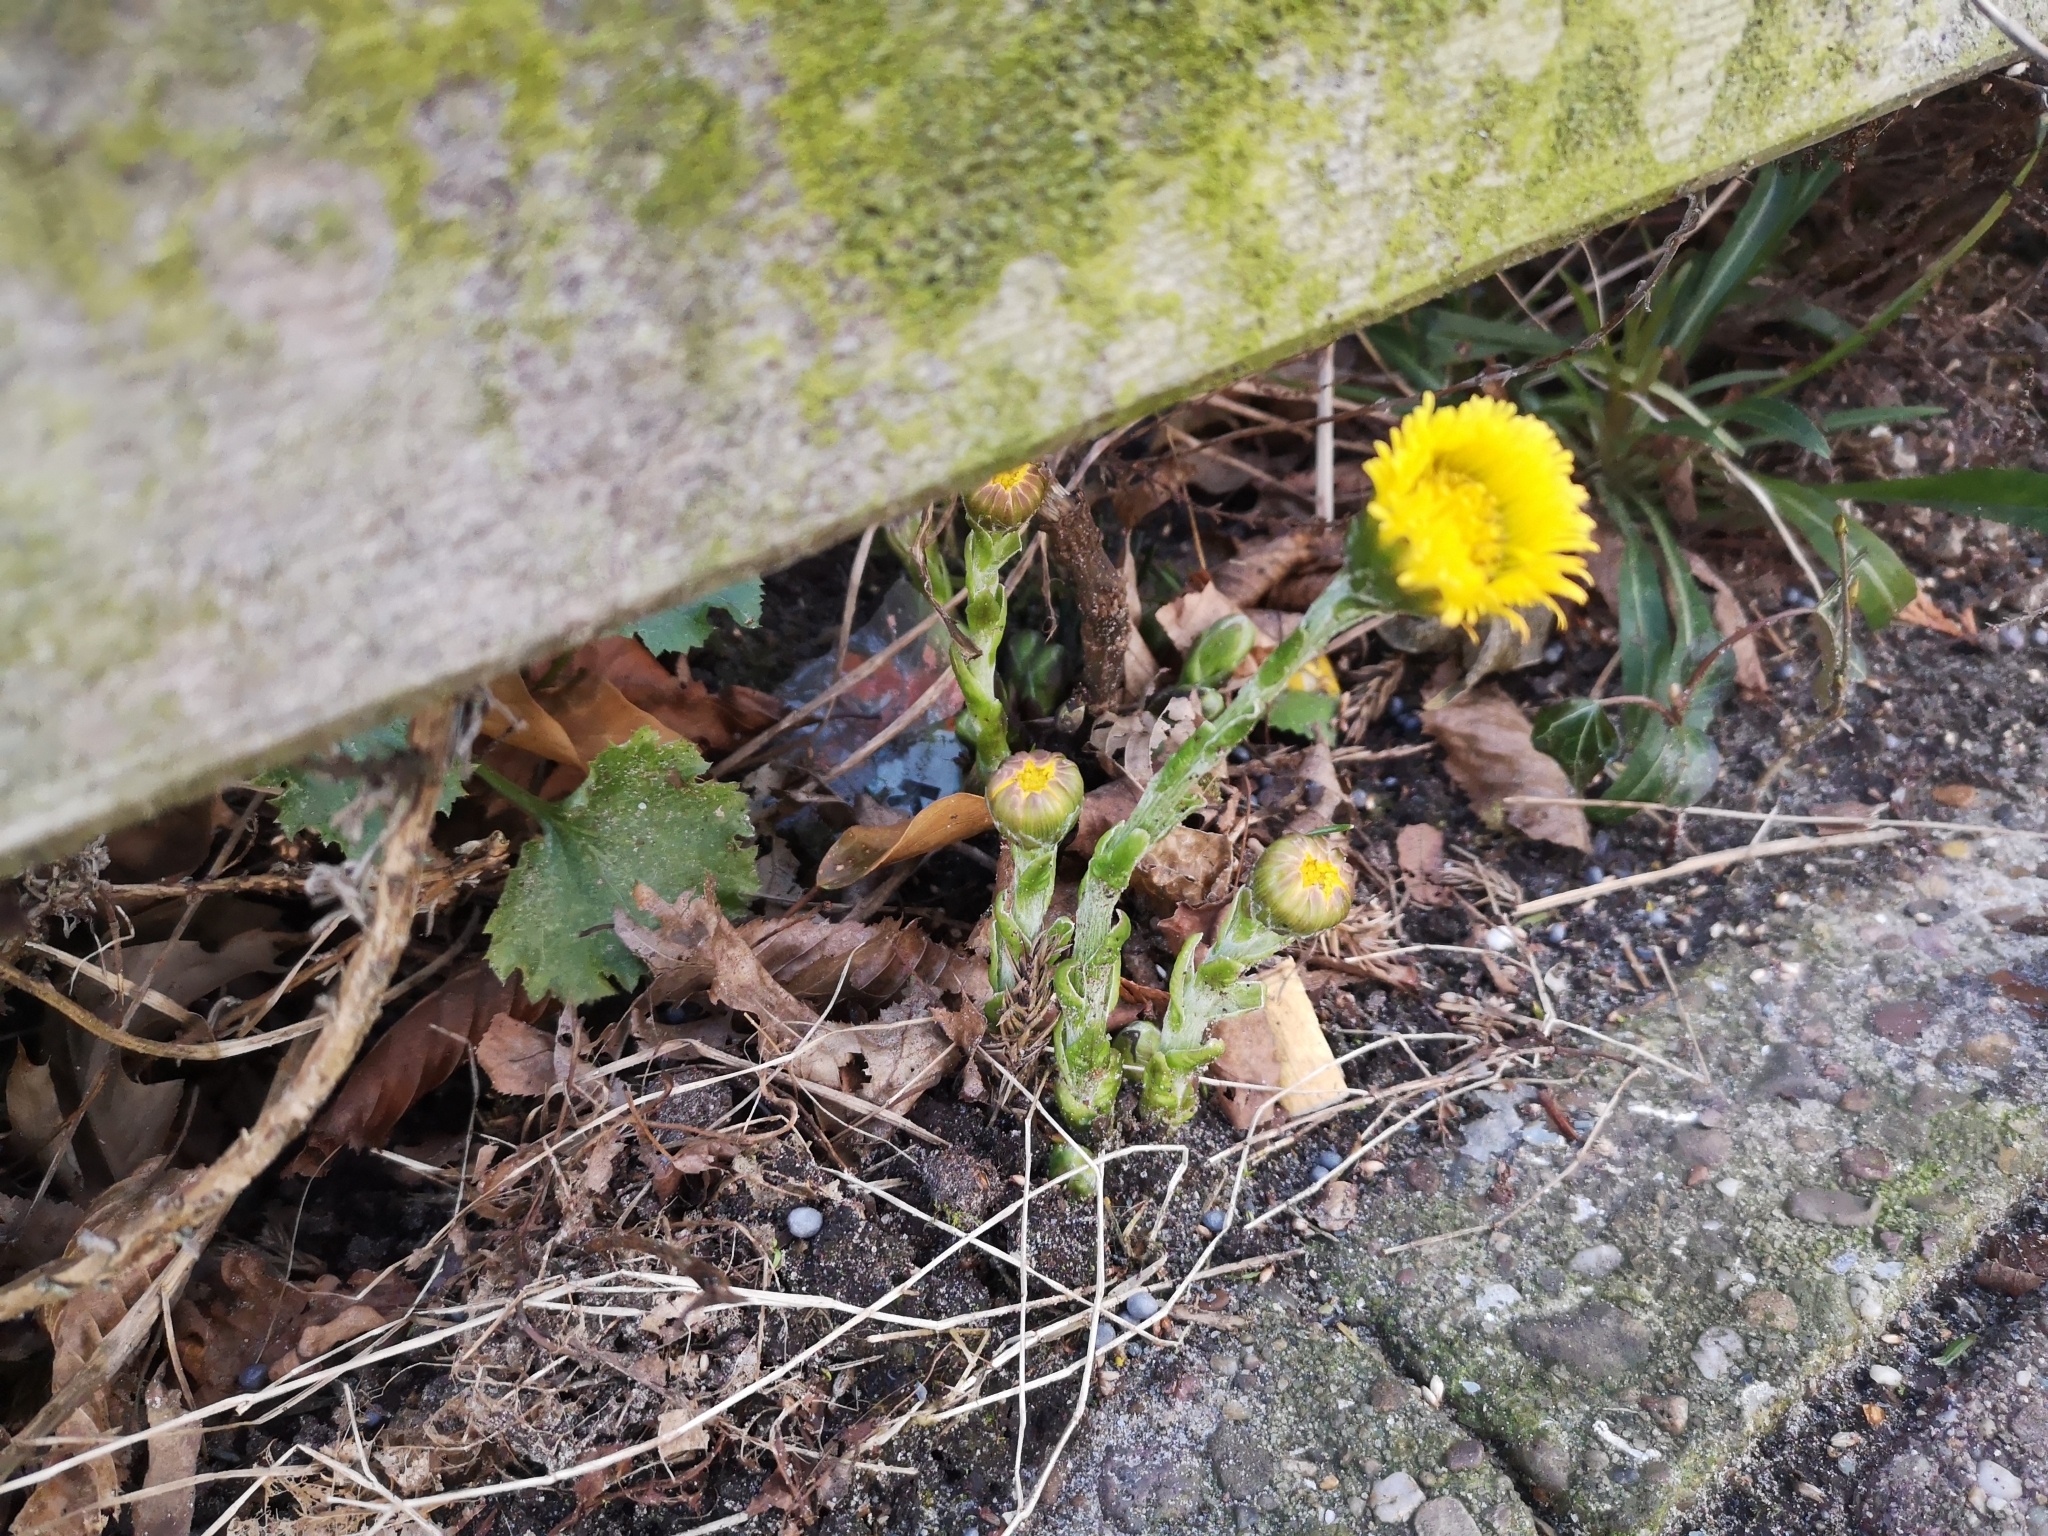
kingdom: Plantae
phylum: Tracheophyta
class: Magnoliopsida
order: Asterales
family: Asteraceae
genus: Tussilago
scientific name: Tussilago farfara
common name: Coltsfoot
